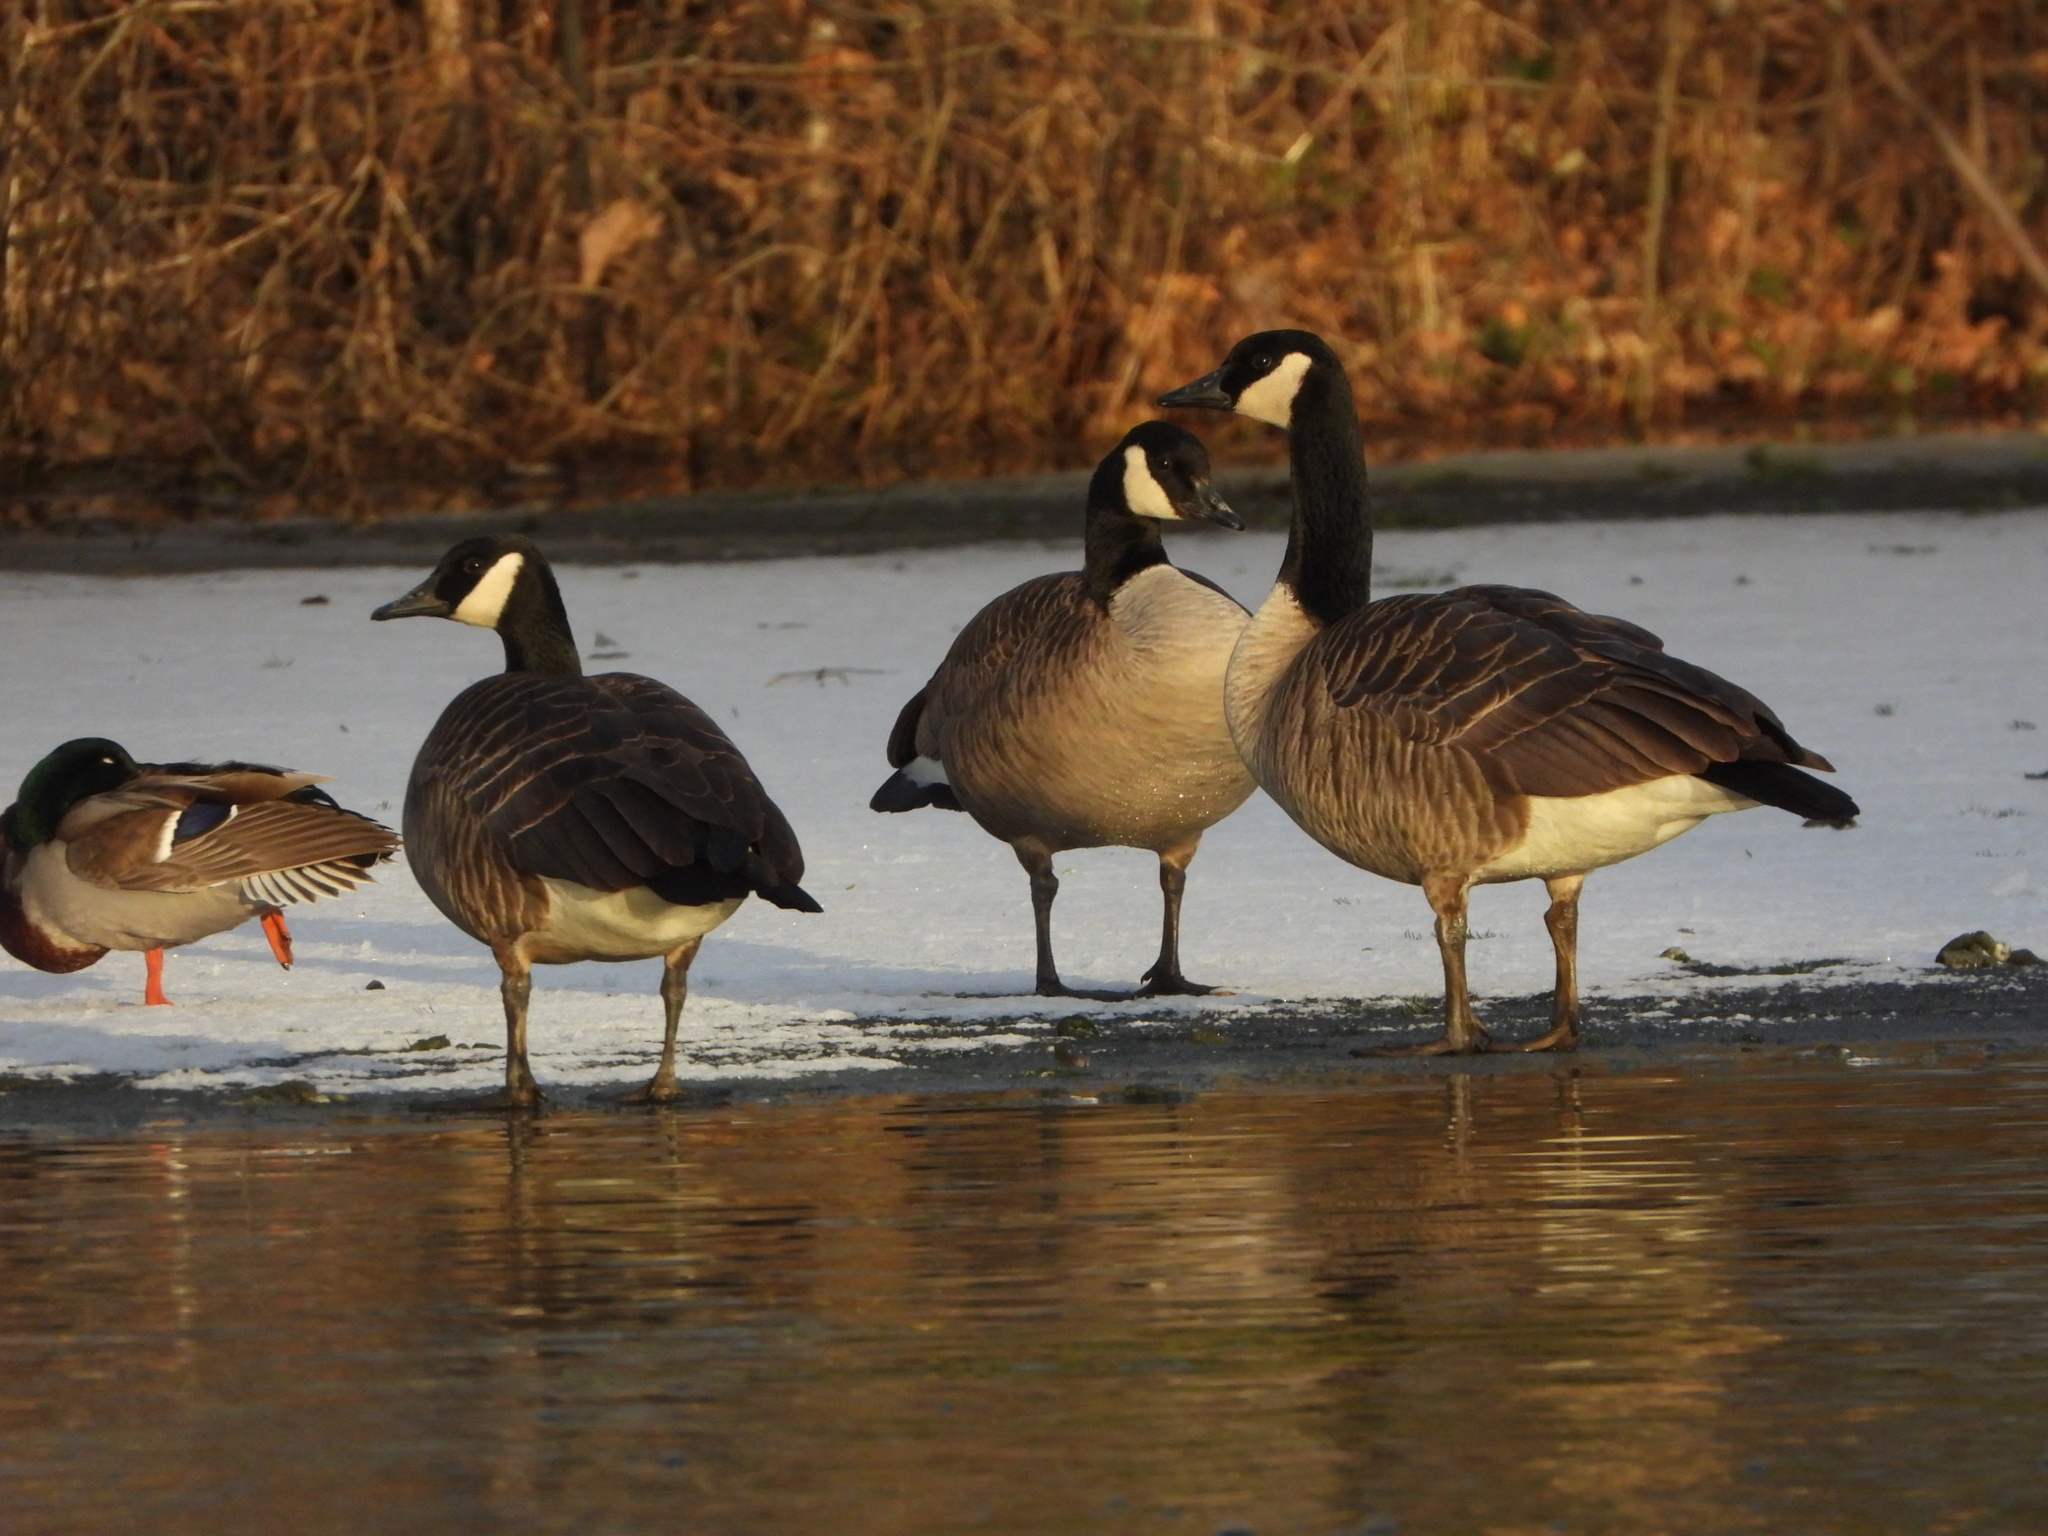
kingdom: Animalia
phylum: Chordata
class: Aves
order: Anseriformes
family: Anatidae
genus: Branta
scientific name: Branta canadensis
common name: Canada goose
